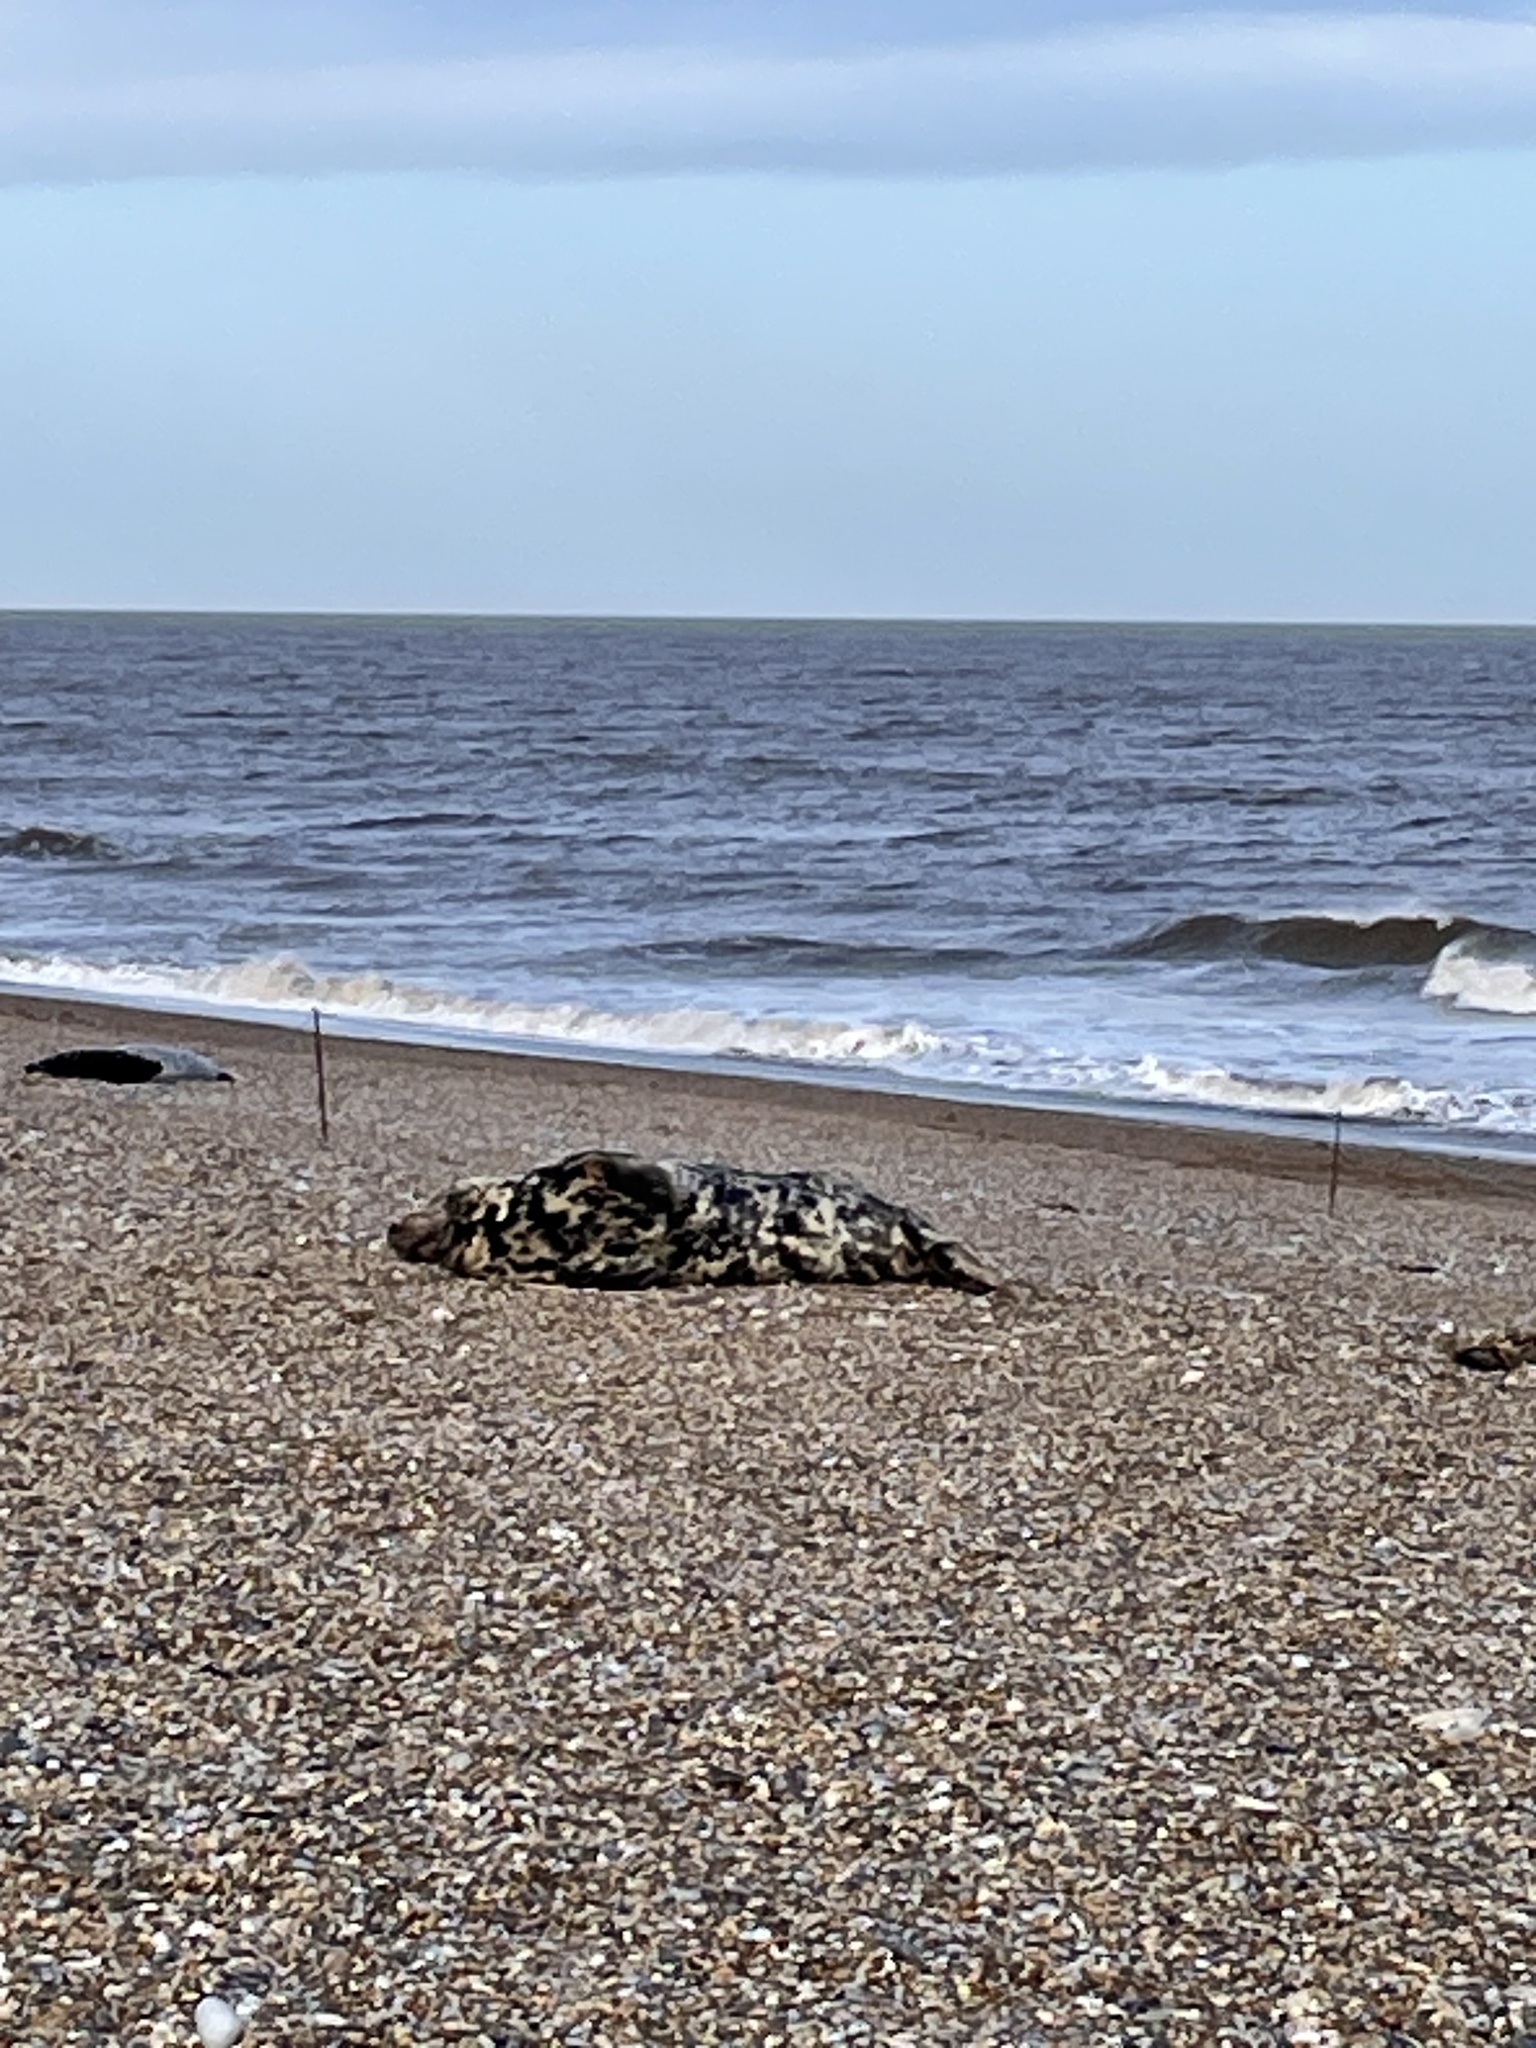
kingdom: Animalia
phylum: Chordata
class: Mammalia
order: Carnivora
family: Phocidae
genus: Halichoerus
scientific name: Halichoerus grypus
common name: Grey seal
